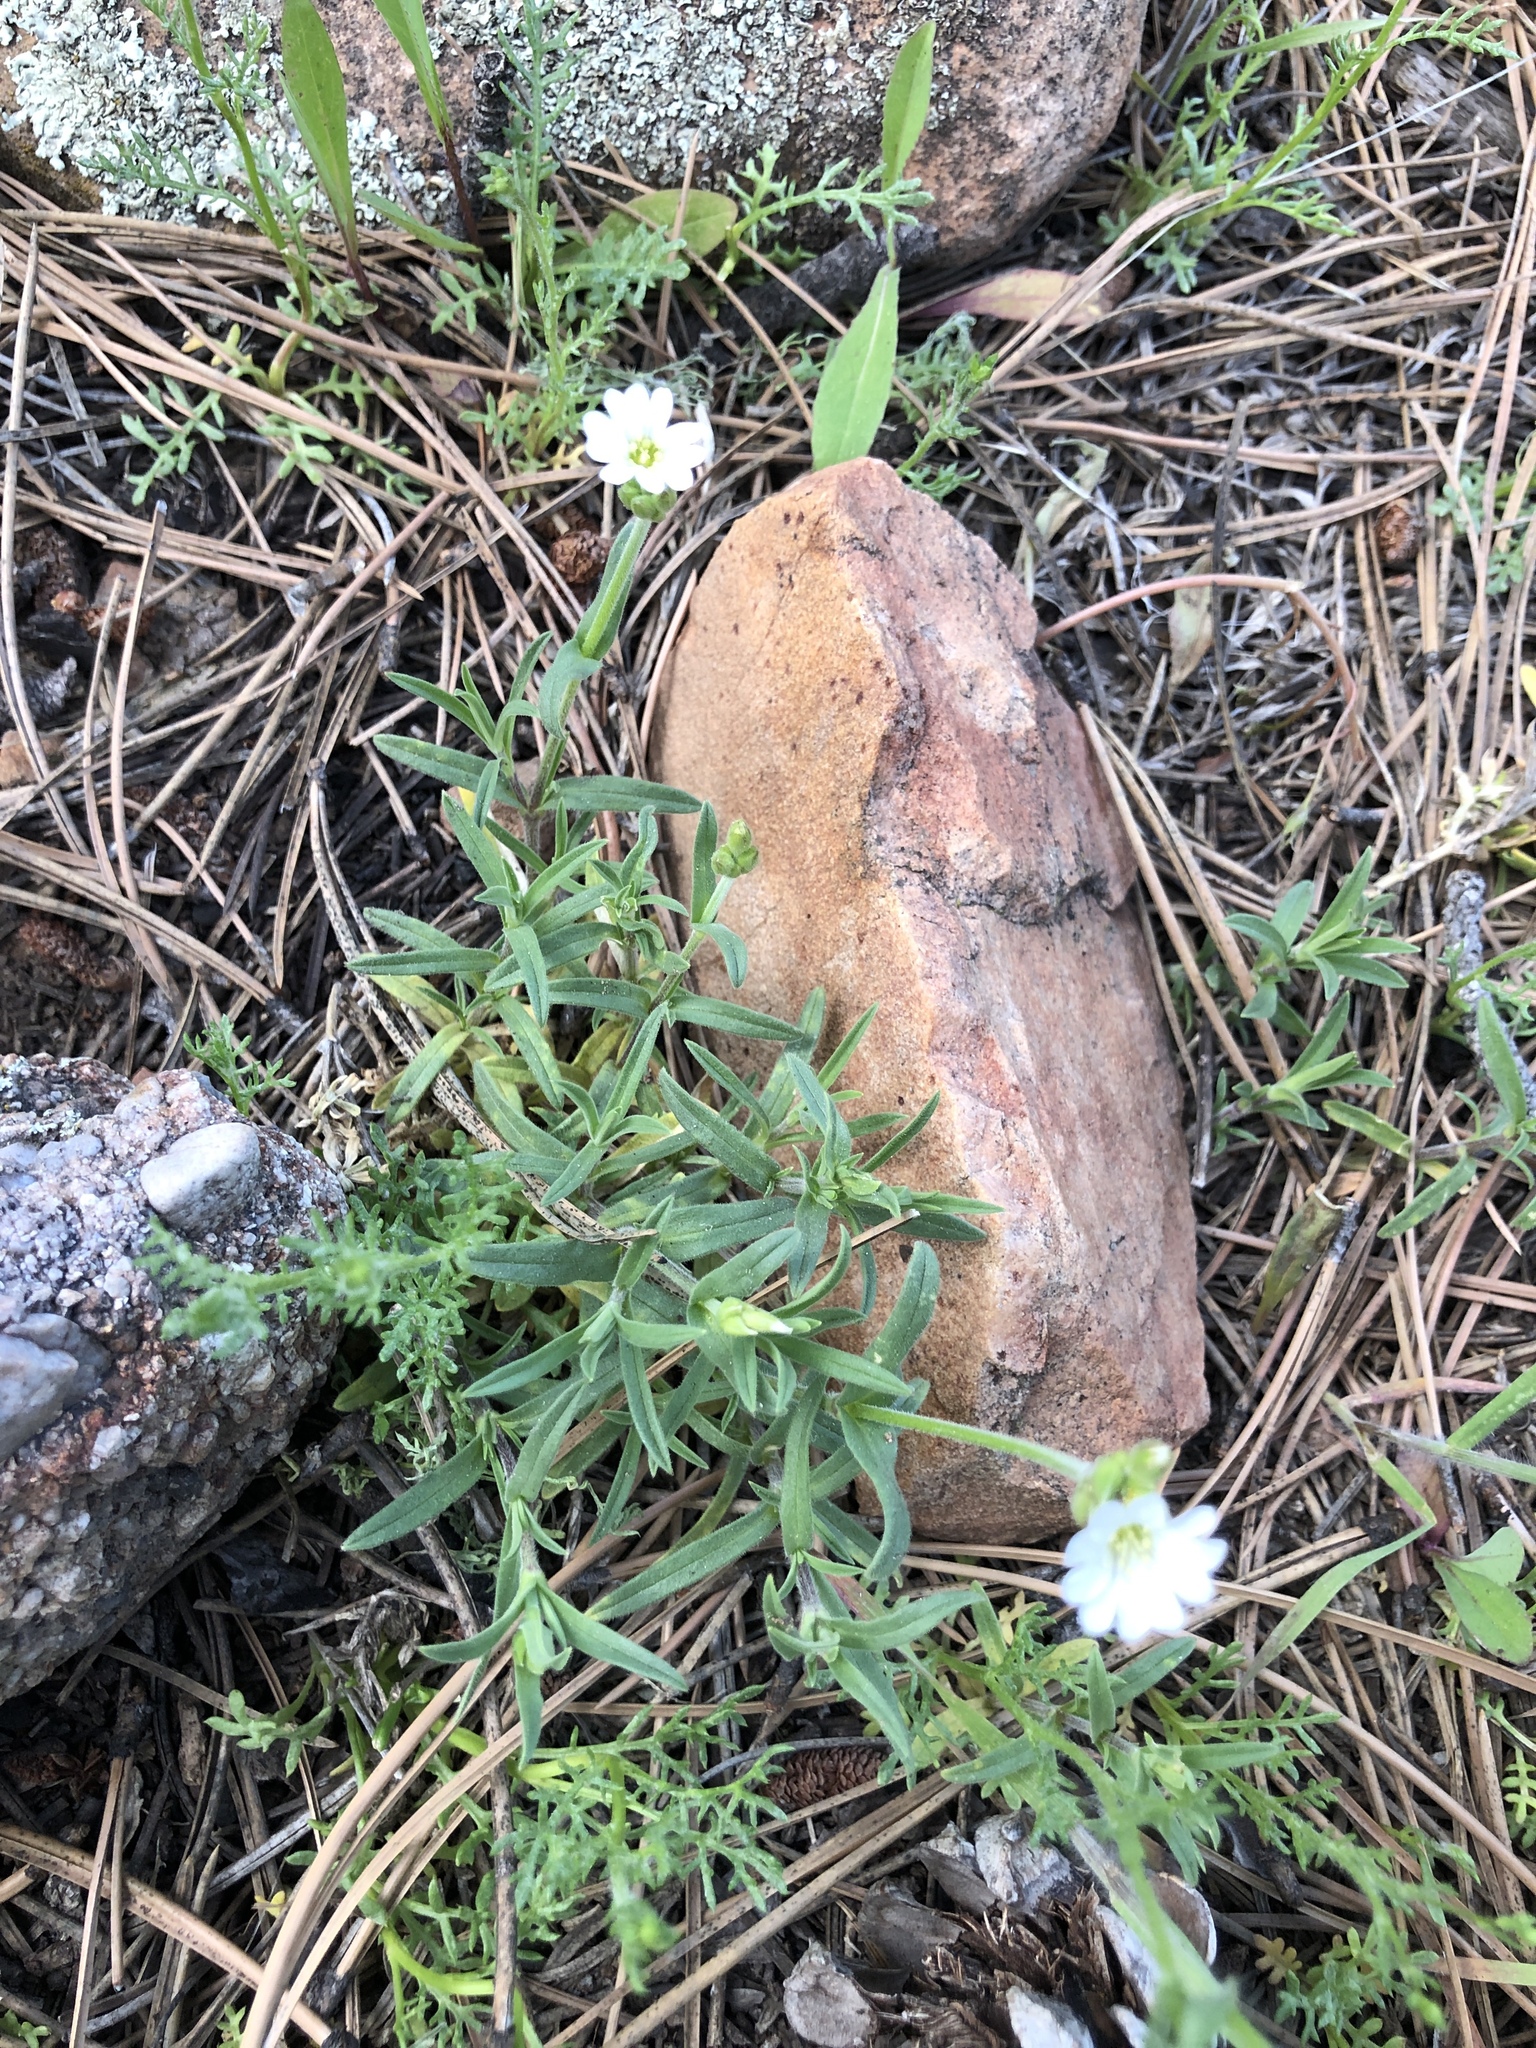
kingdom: Plantae
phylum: Tracheophyta
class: Magnoliopsida
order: Caryophyllales
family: Caryophyllaceae
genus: Cerastium
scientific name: Cerastium arvense
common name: Field mouse-ear
